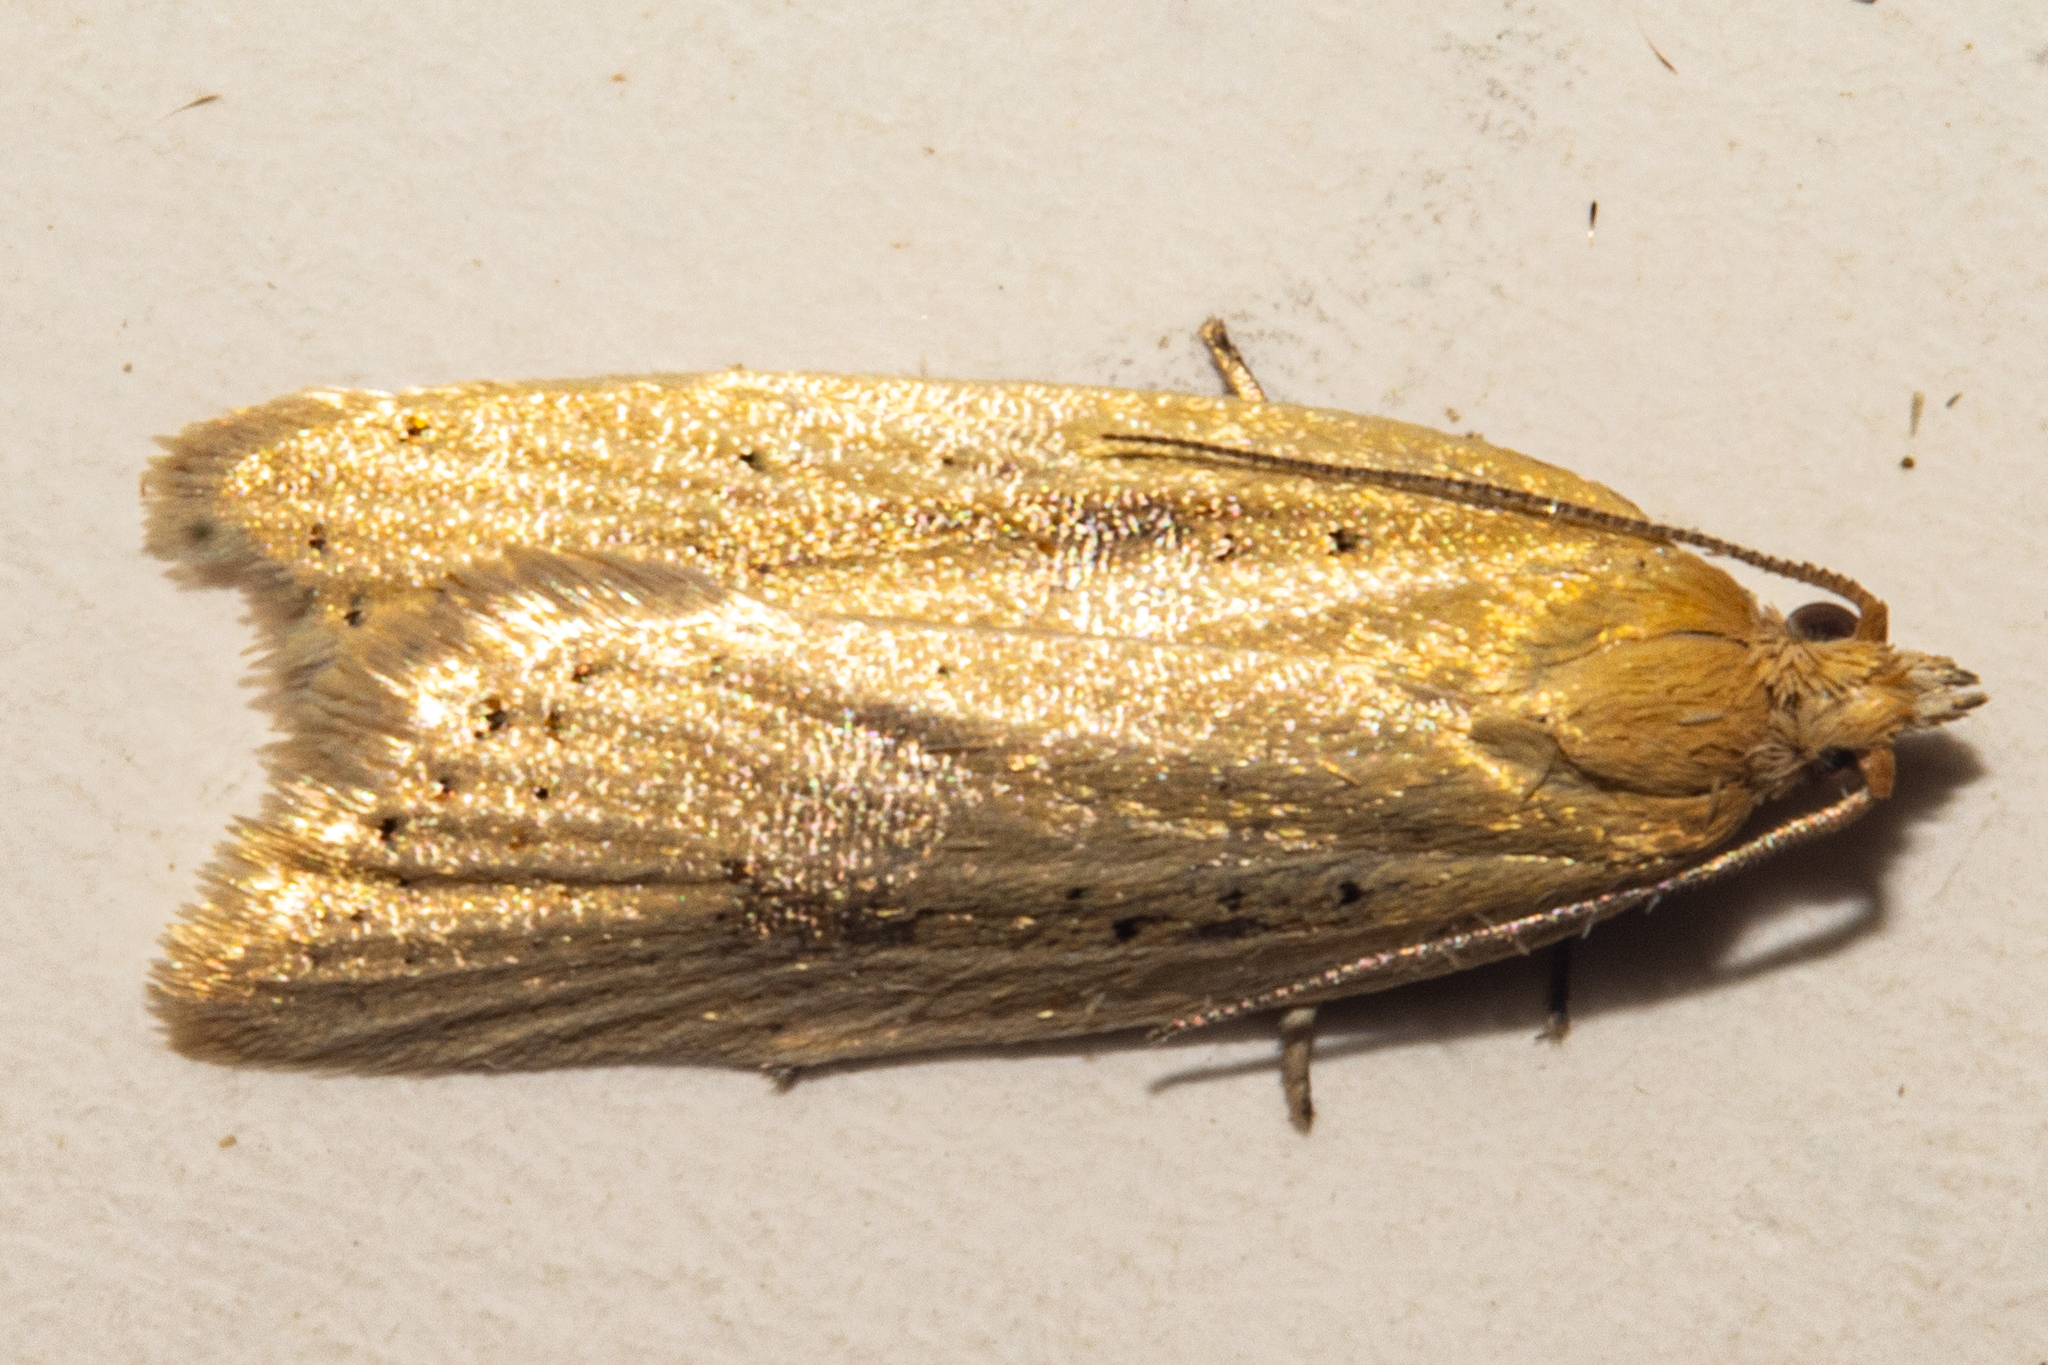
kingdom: Animalia
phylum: Arthropoda
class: Insecta
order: Lepidoptera
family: Tortricidae
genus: Clepsis
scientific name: Clepsis
